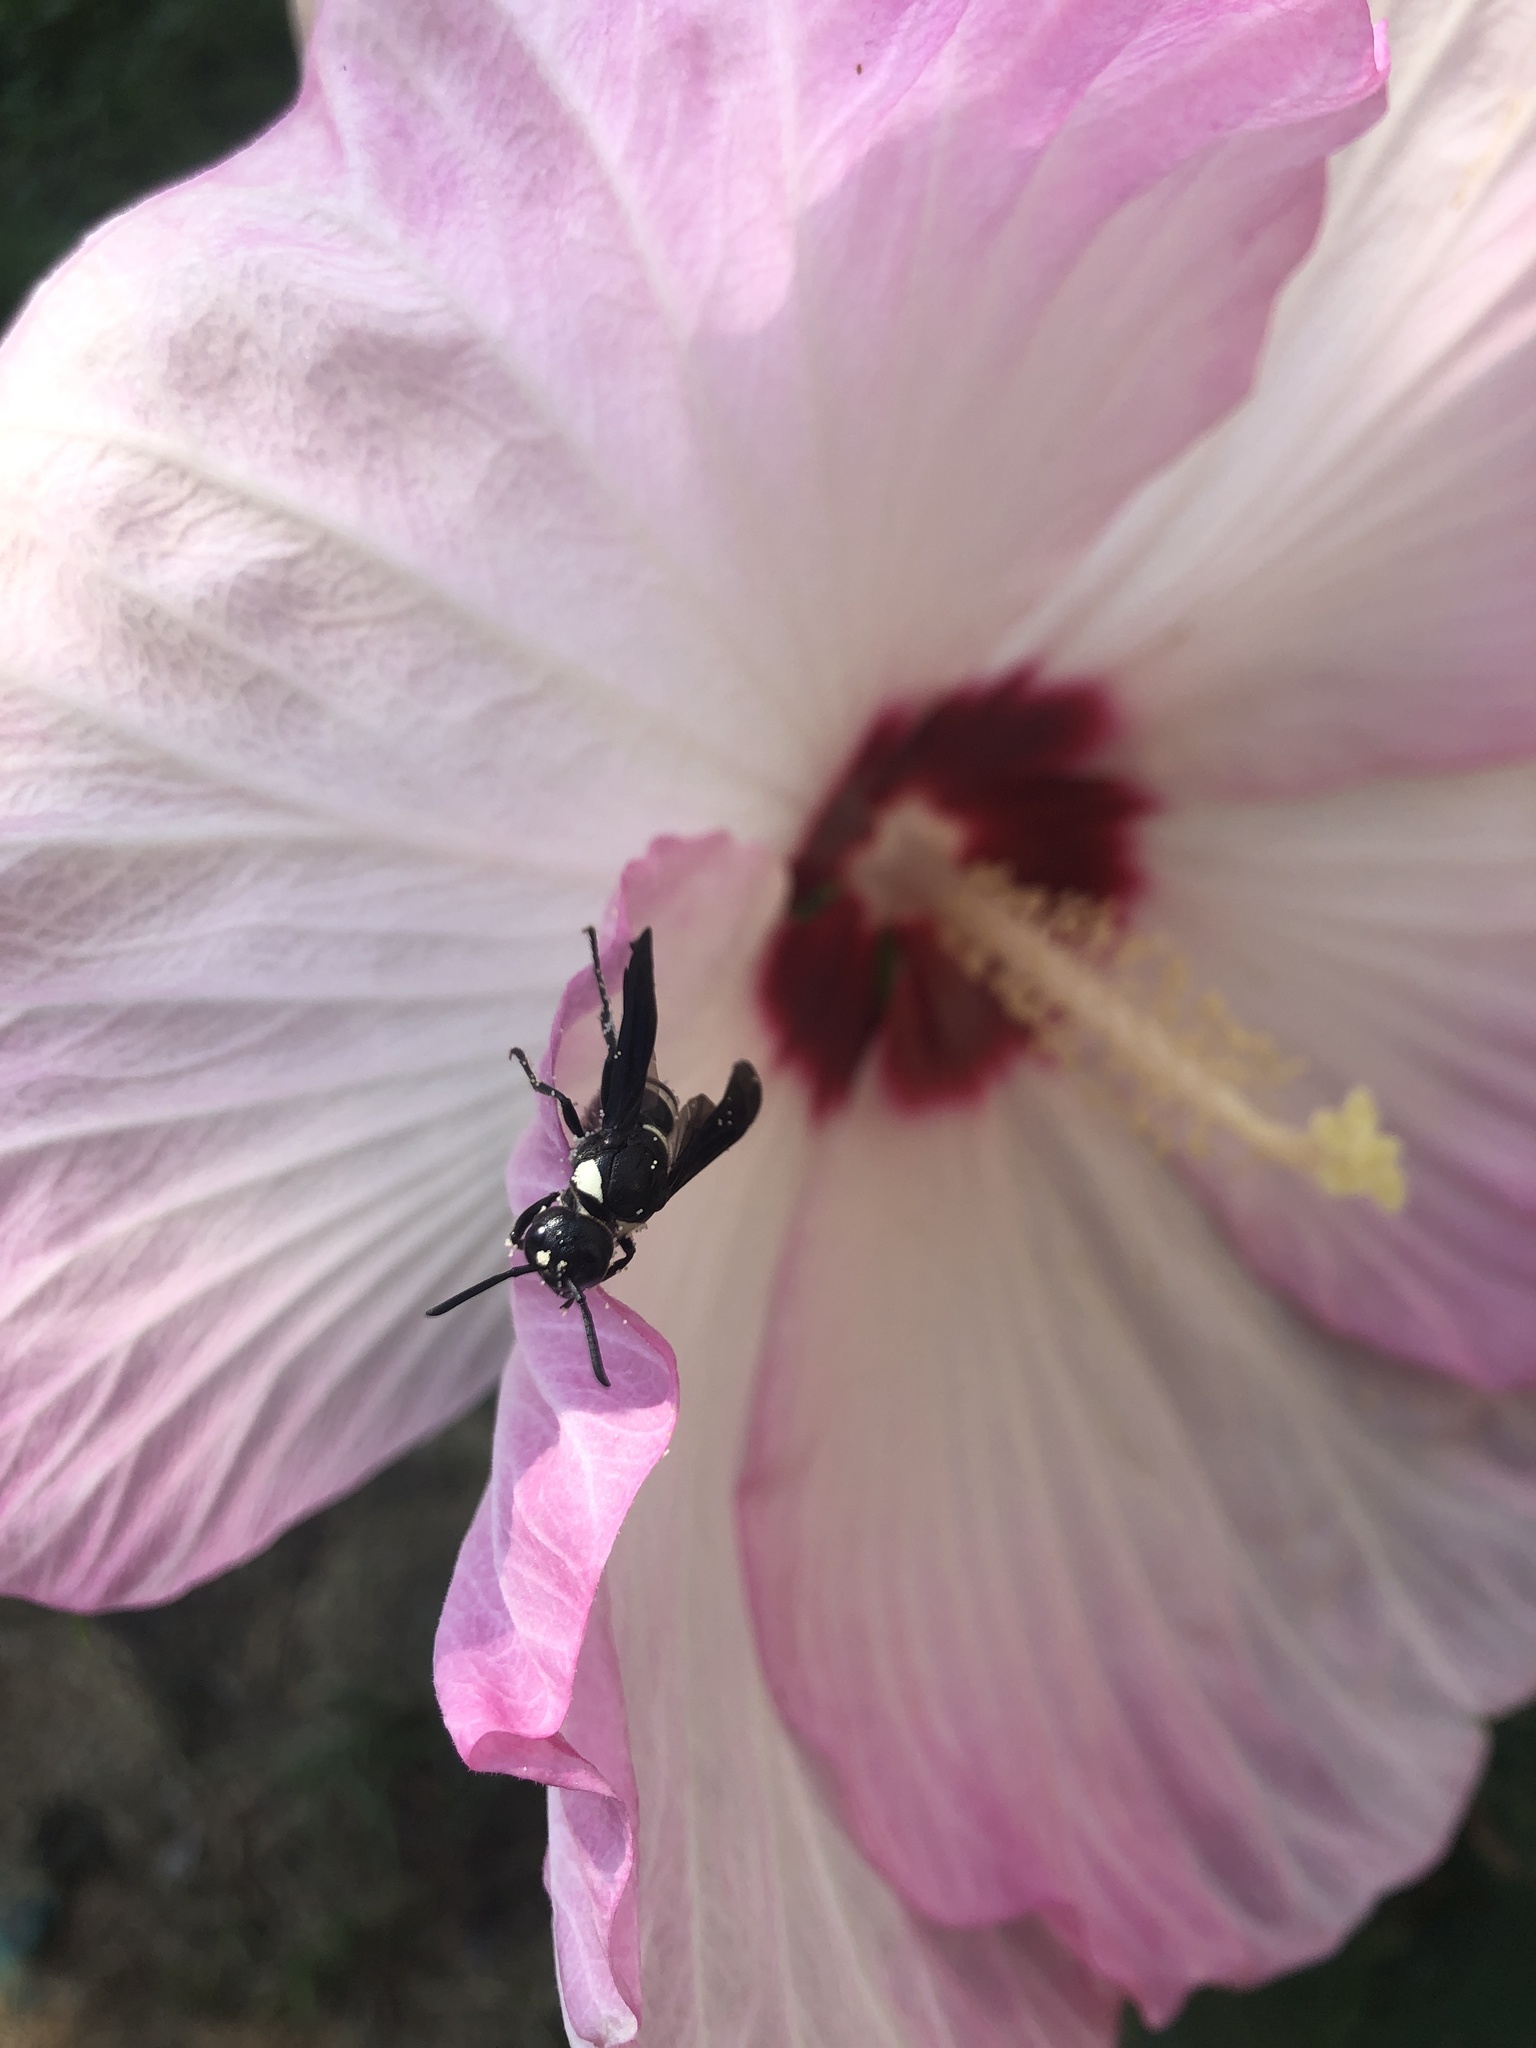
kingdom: Animalia
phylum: Arthropoda
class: Insecta
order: Hymenoptera
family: Eumenidae
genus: Monobia
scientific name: Monobia quadridens
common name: Four-toothed mason wasp
